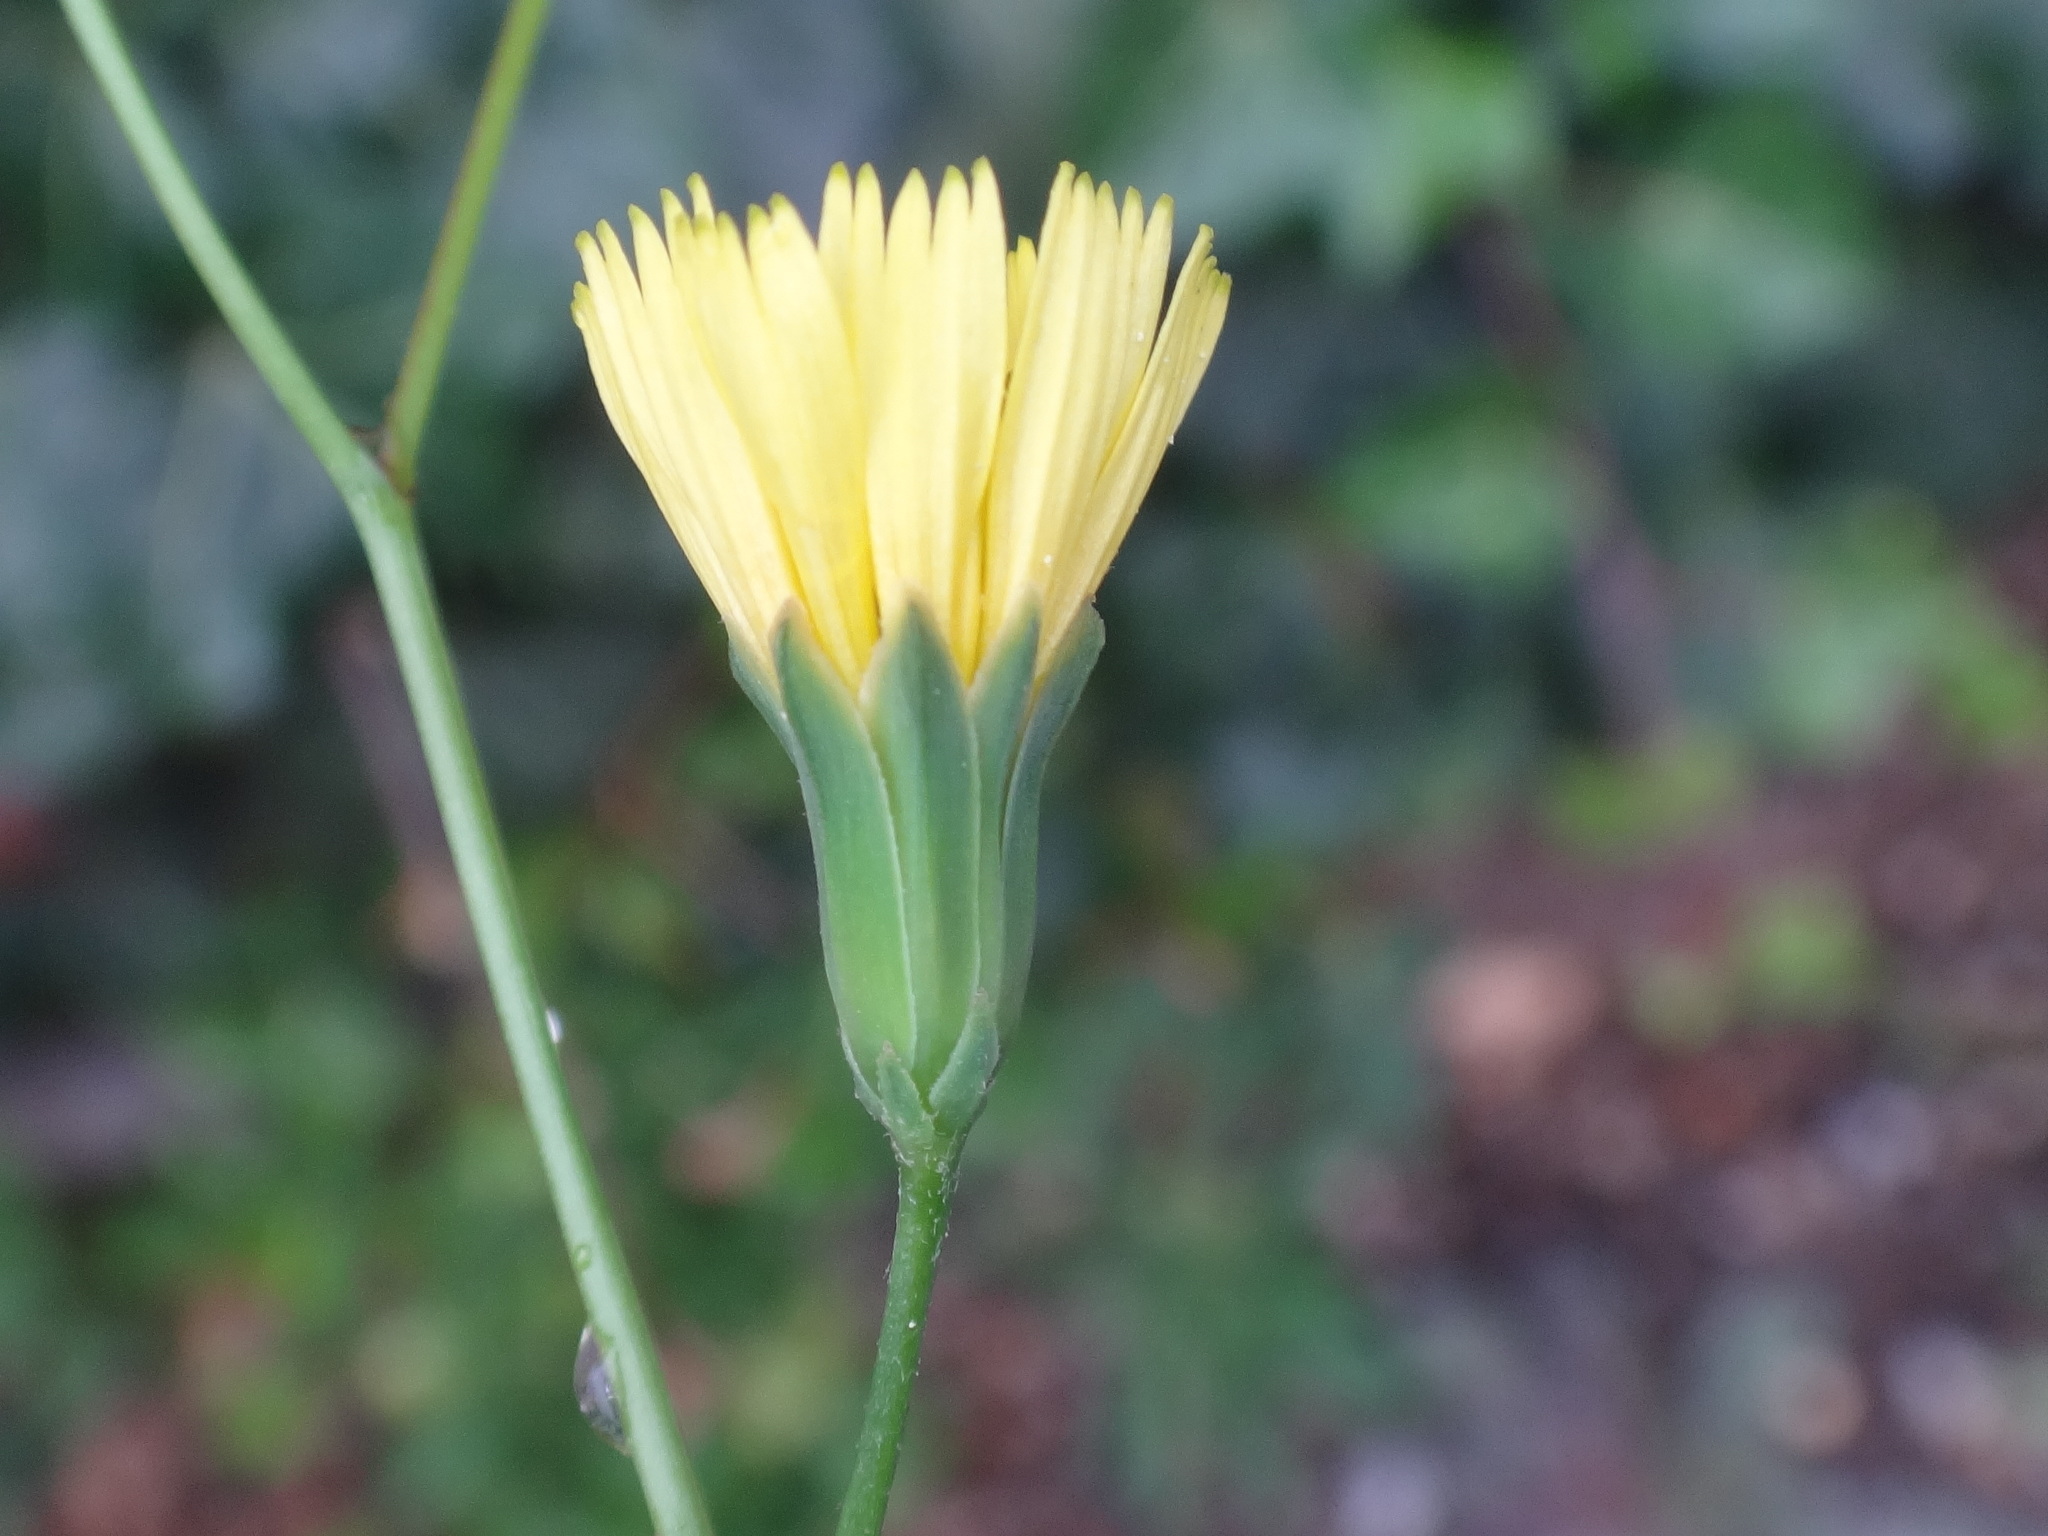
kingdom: Plantae
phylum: Tracheophyta
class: Magnoliopsida
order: Asterales
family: Asteraceae
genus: Lapsana
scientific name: Lapsana communis
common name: Nipplewort
